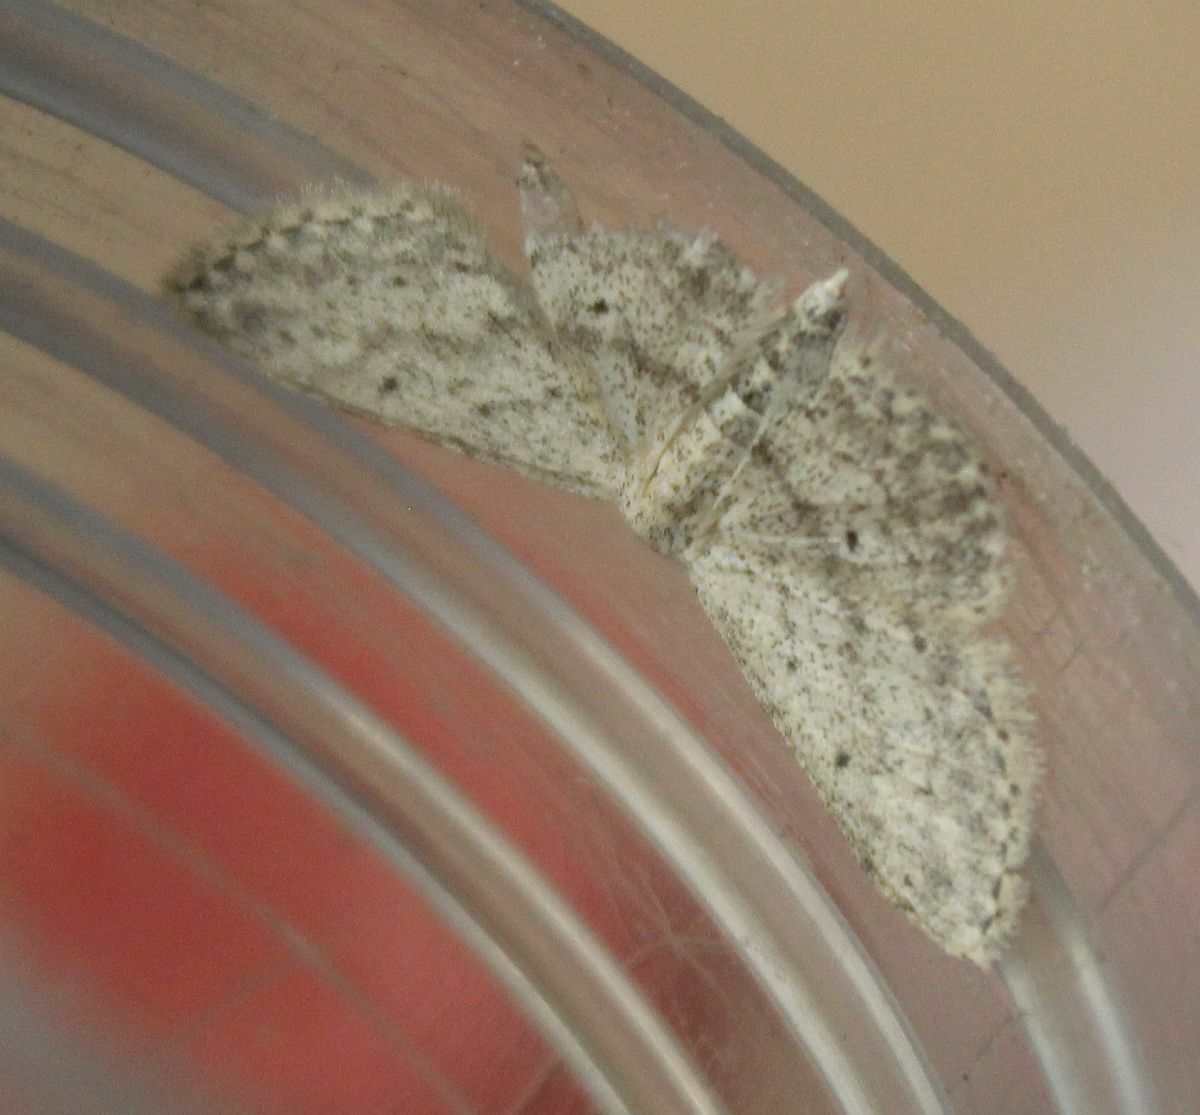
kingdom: Animalia
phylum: Arthropoda
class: Insecta
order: Lepidoptera
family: Geometridae
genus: Idaea
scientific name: Idaea seriata
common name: Small dusty wave
